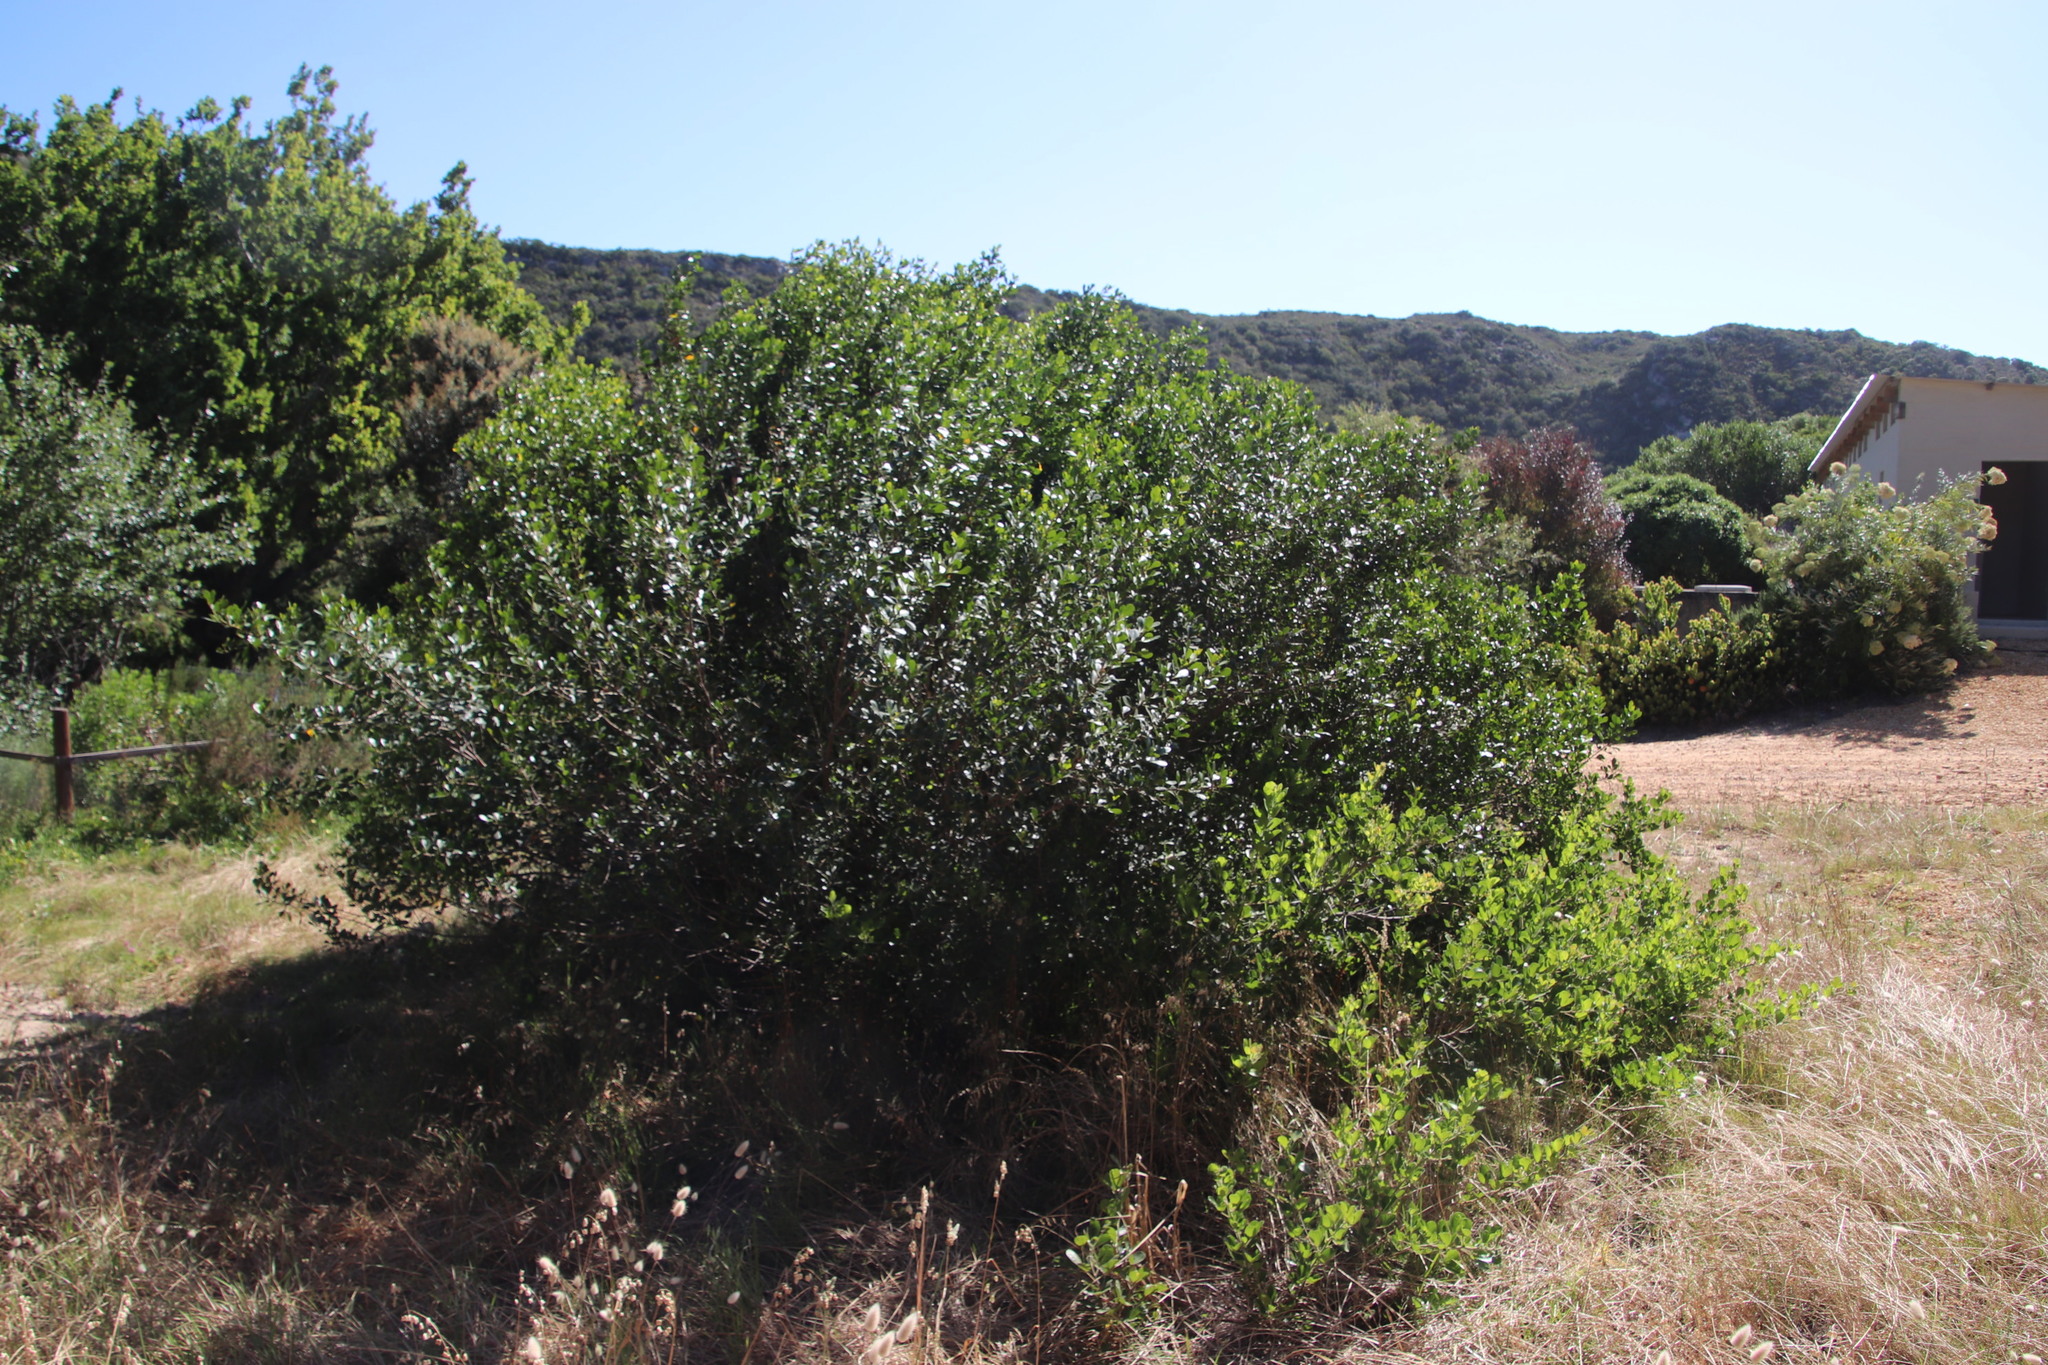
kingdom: Plantae
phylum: Tracheophyta
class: Magnoliopsida
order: Sapindales
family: Anacardiaceae
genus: Searsia
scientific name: Searsia lucida
